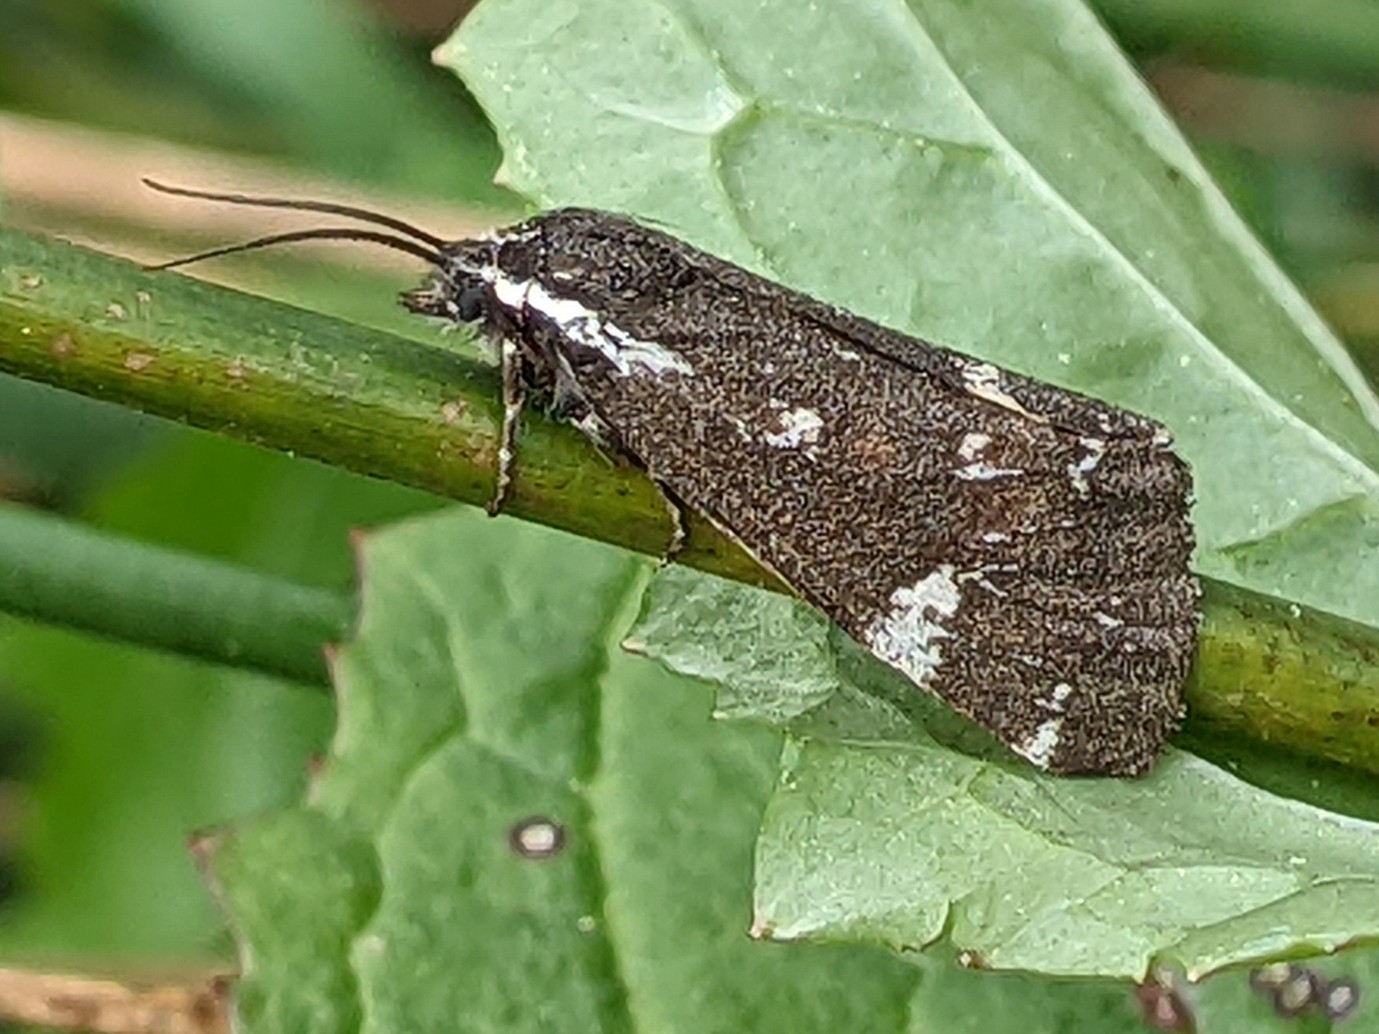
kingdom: Animalia
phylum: Arthropoda
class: Insecta
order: Lepidoptera
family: Erebidae
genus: Leptarctia
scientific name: Leptarctia californiae
